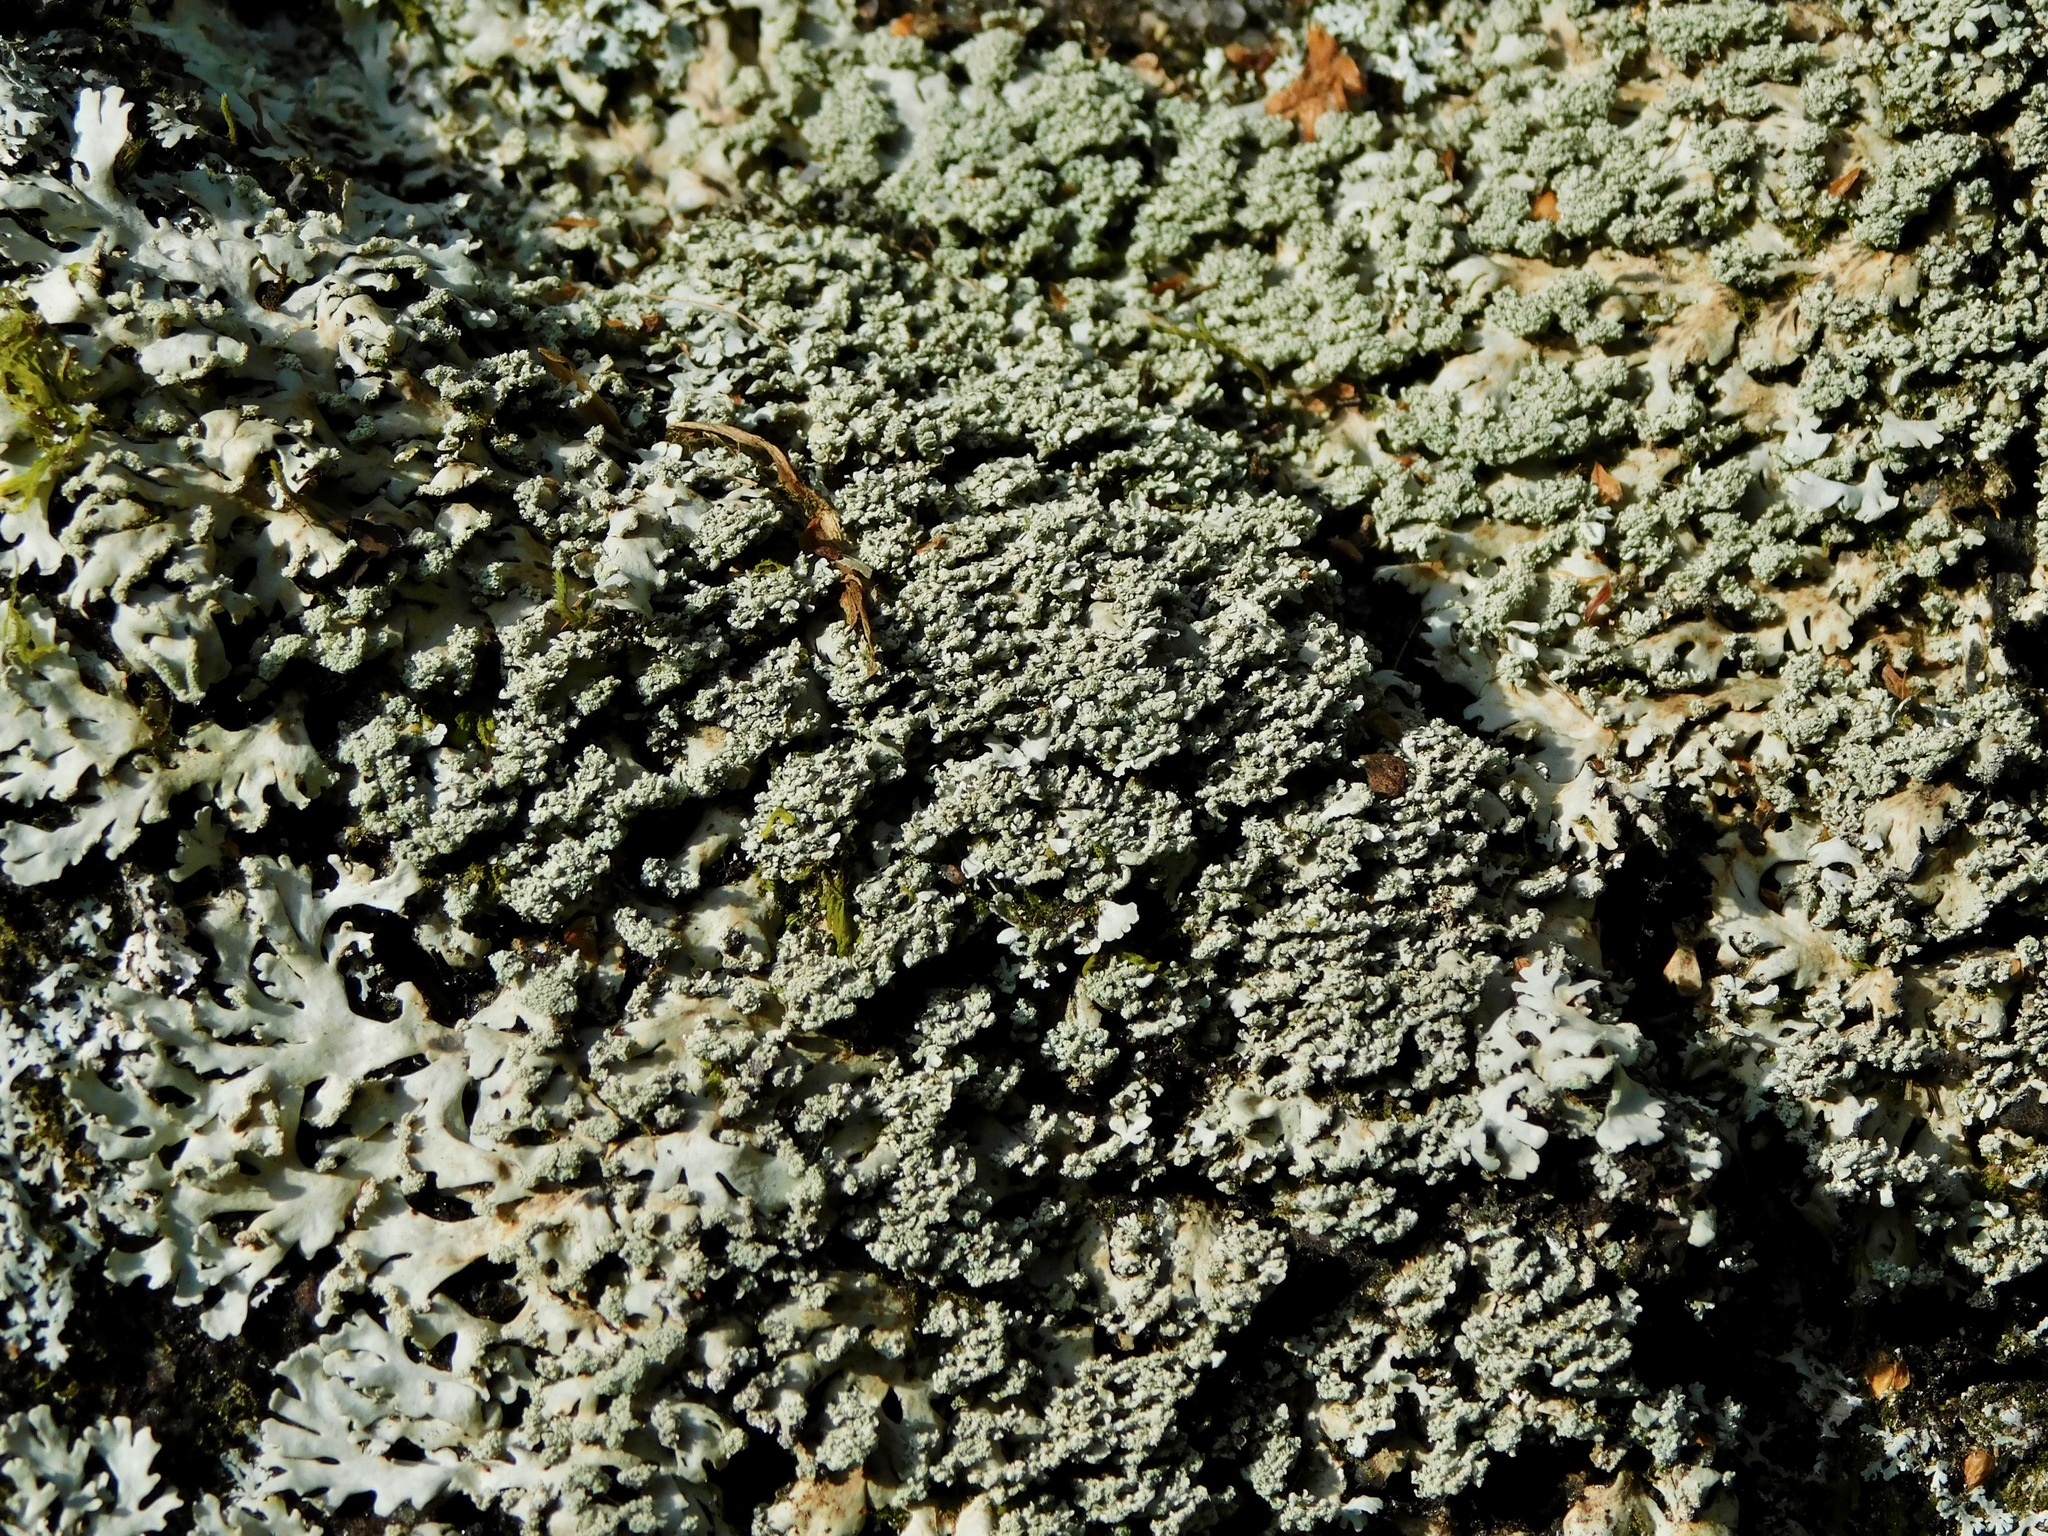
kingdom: Fungi
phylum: Ascomycota
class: Lecanoromycetes
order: Caliciales
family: Physciaceae
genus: Heterodermia
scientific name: Heterodermia pseudospeciosa
